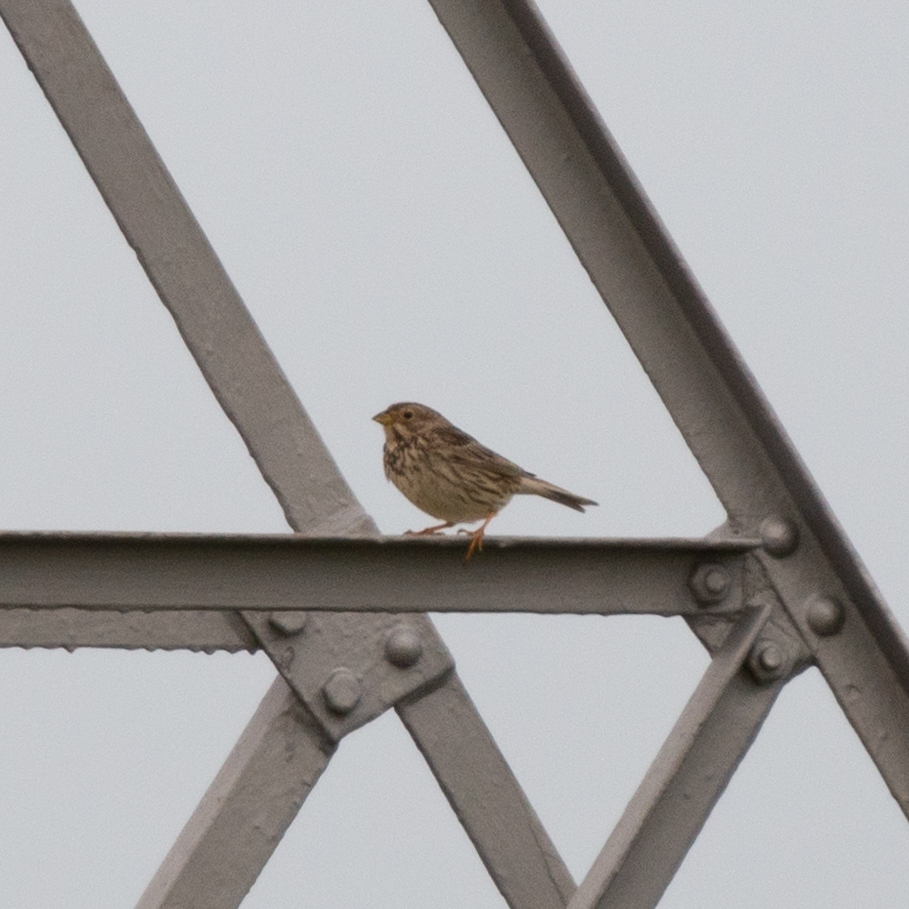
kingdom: Animalia
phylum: Chordata
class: Aves
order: Passeriformes
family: Emberizidae
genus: Emberiza
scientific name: Emberiza calandra
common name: Corn bunting
